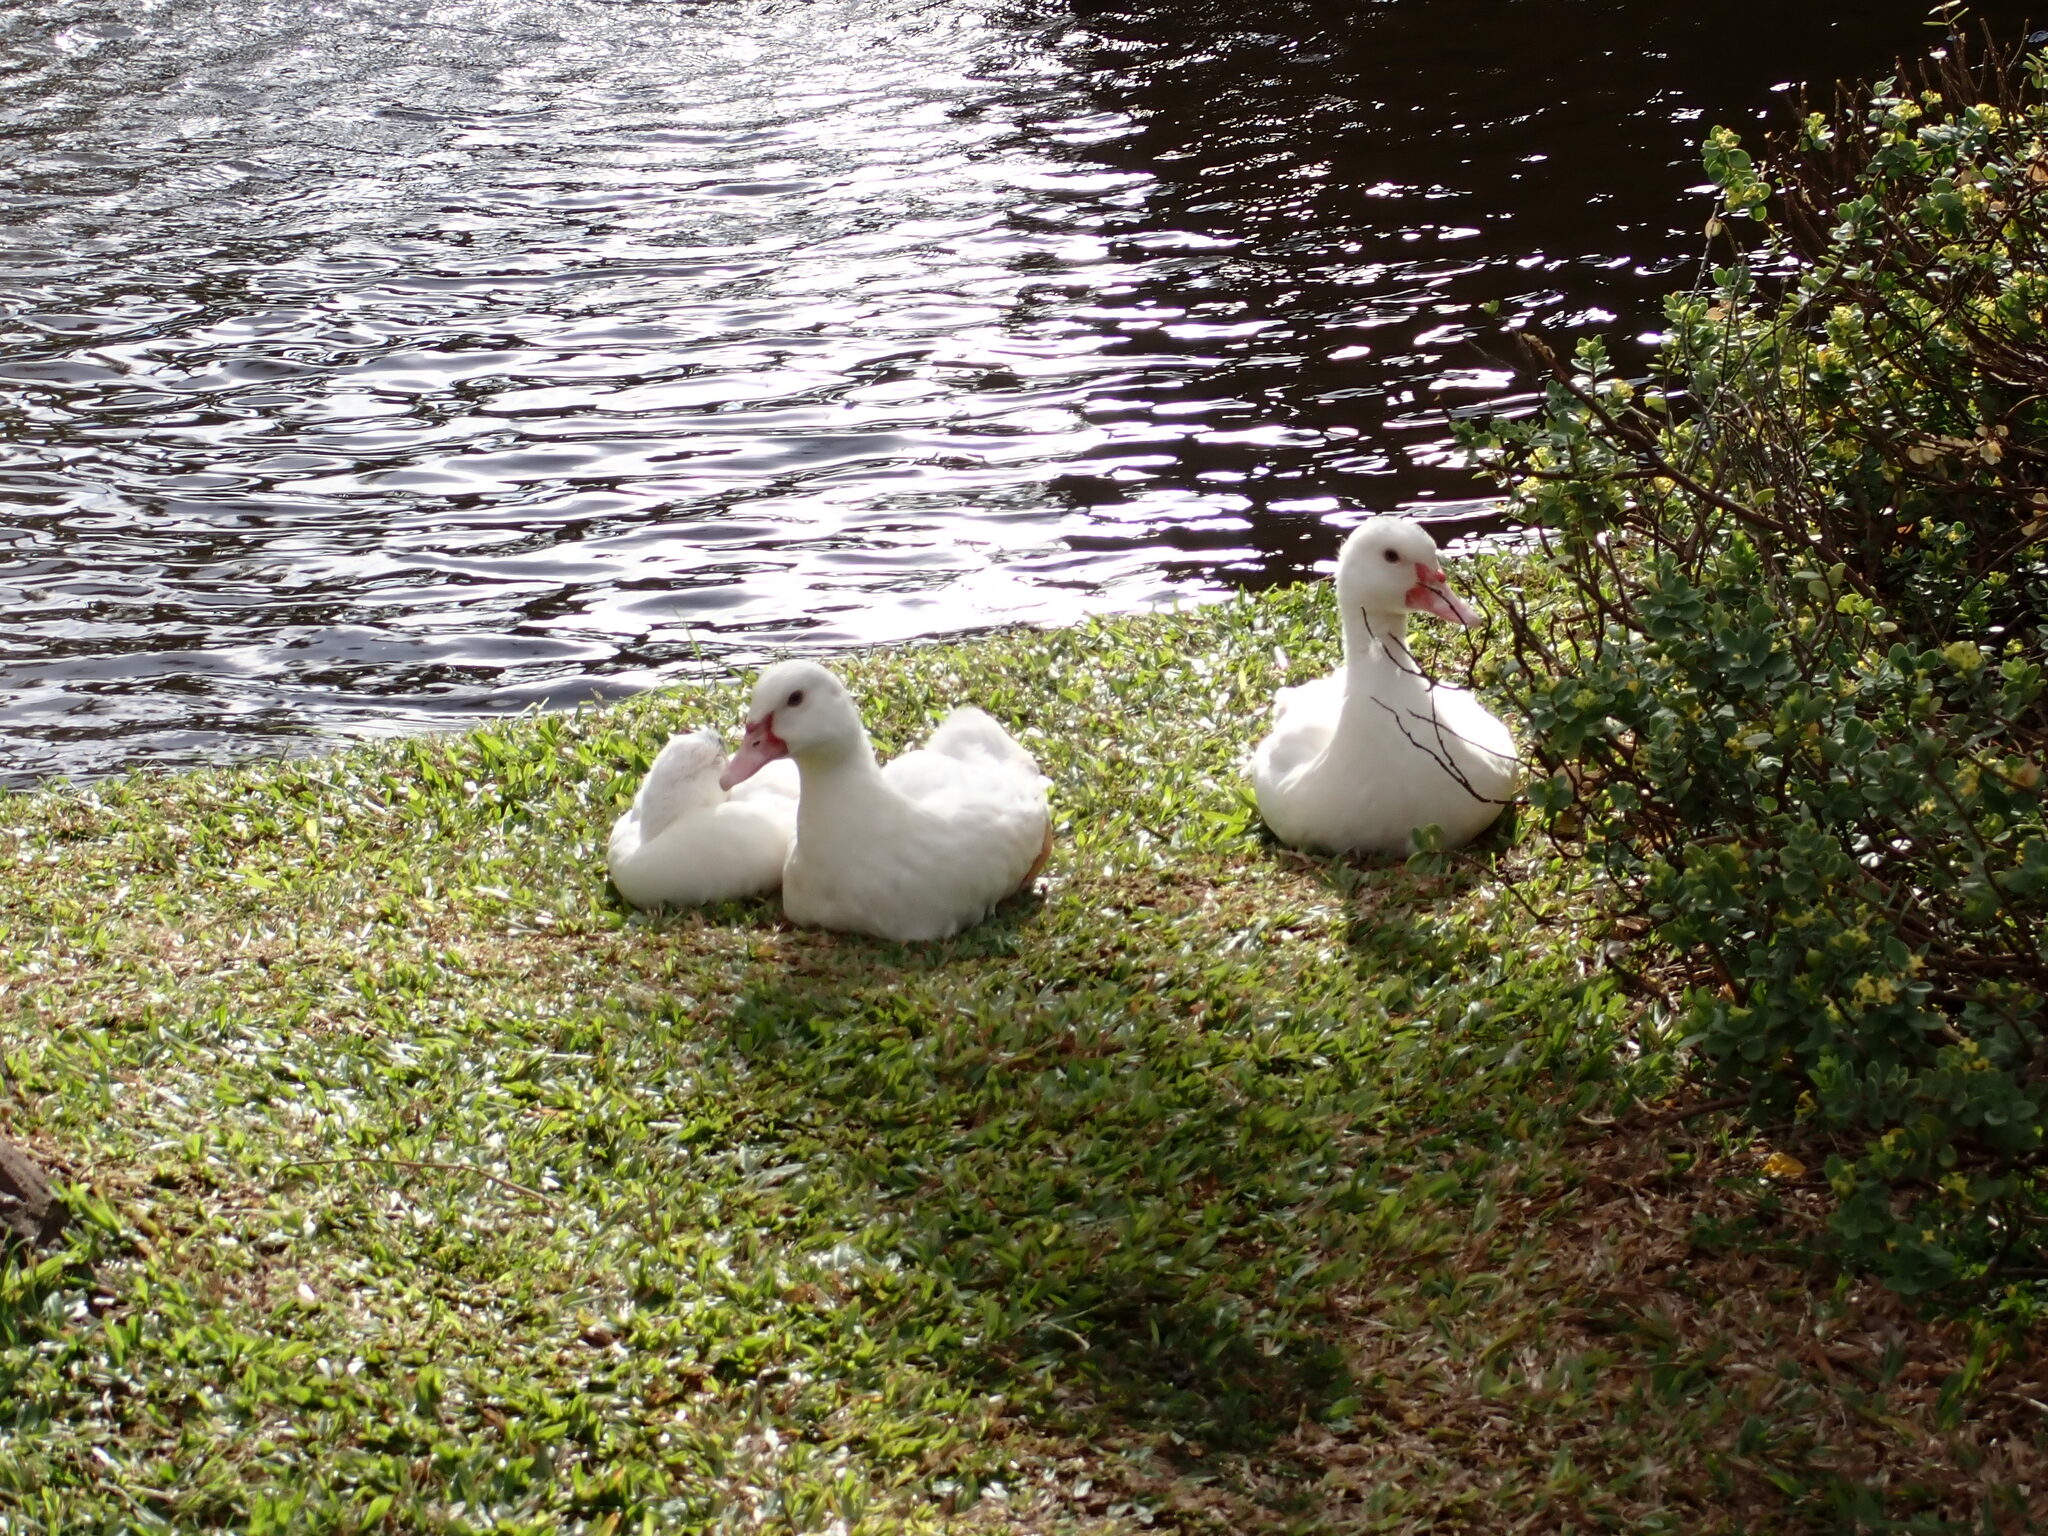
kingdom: Animalia
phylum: Chordata
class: Aves
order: Anseriformes
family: Anatidae
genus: Cairina
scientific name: Cairina moschata
